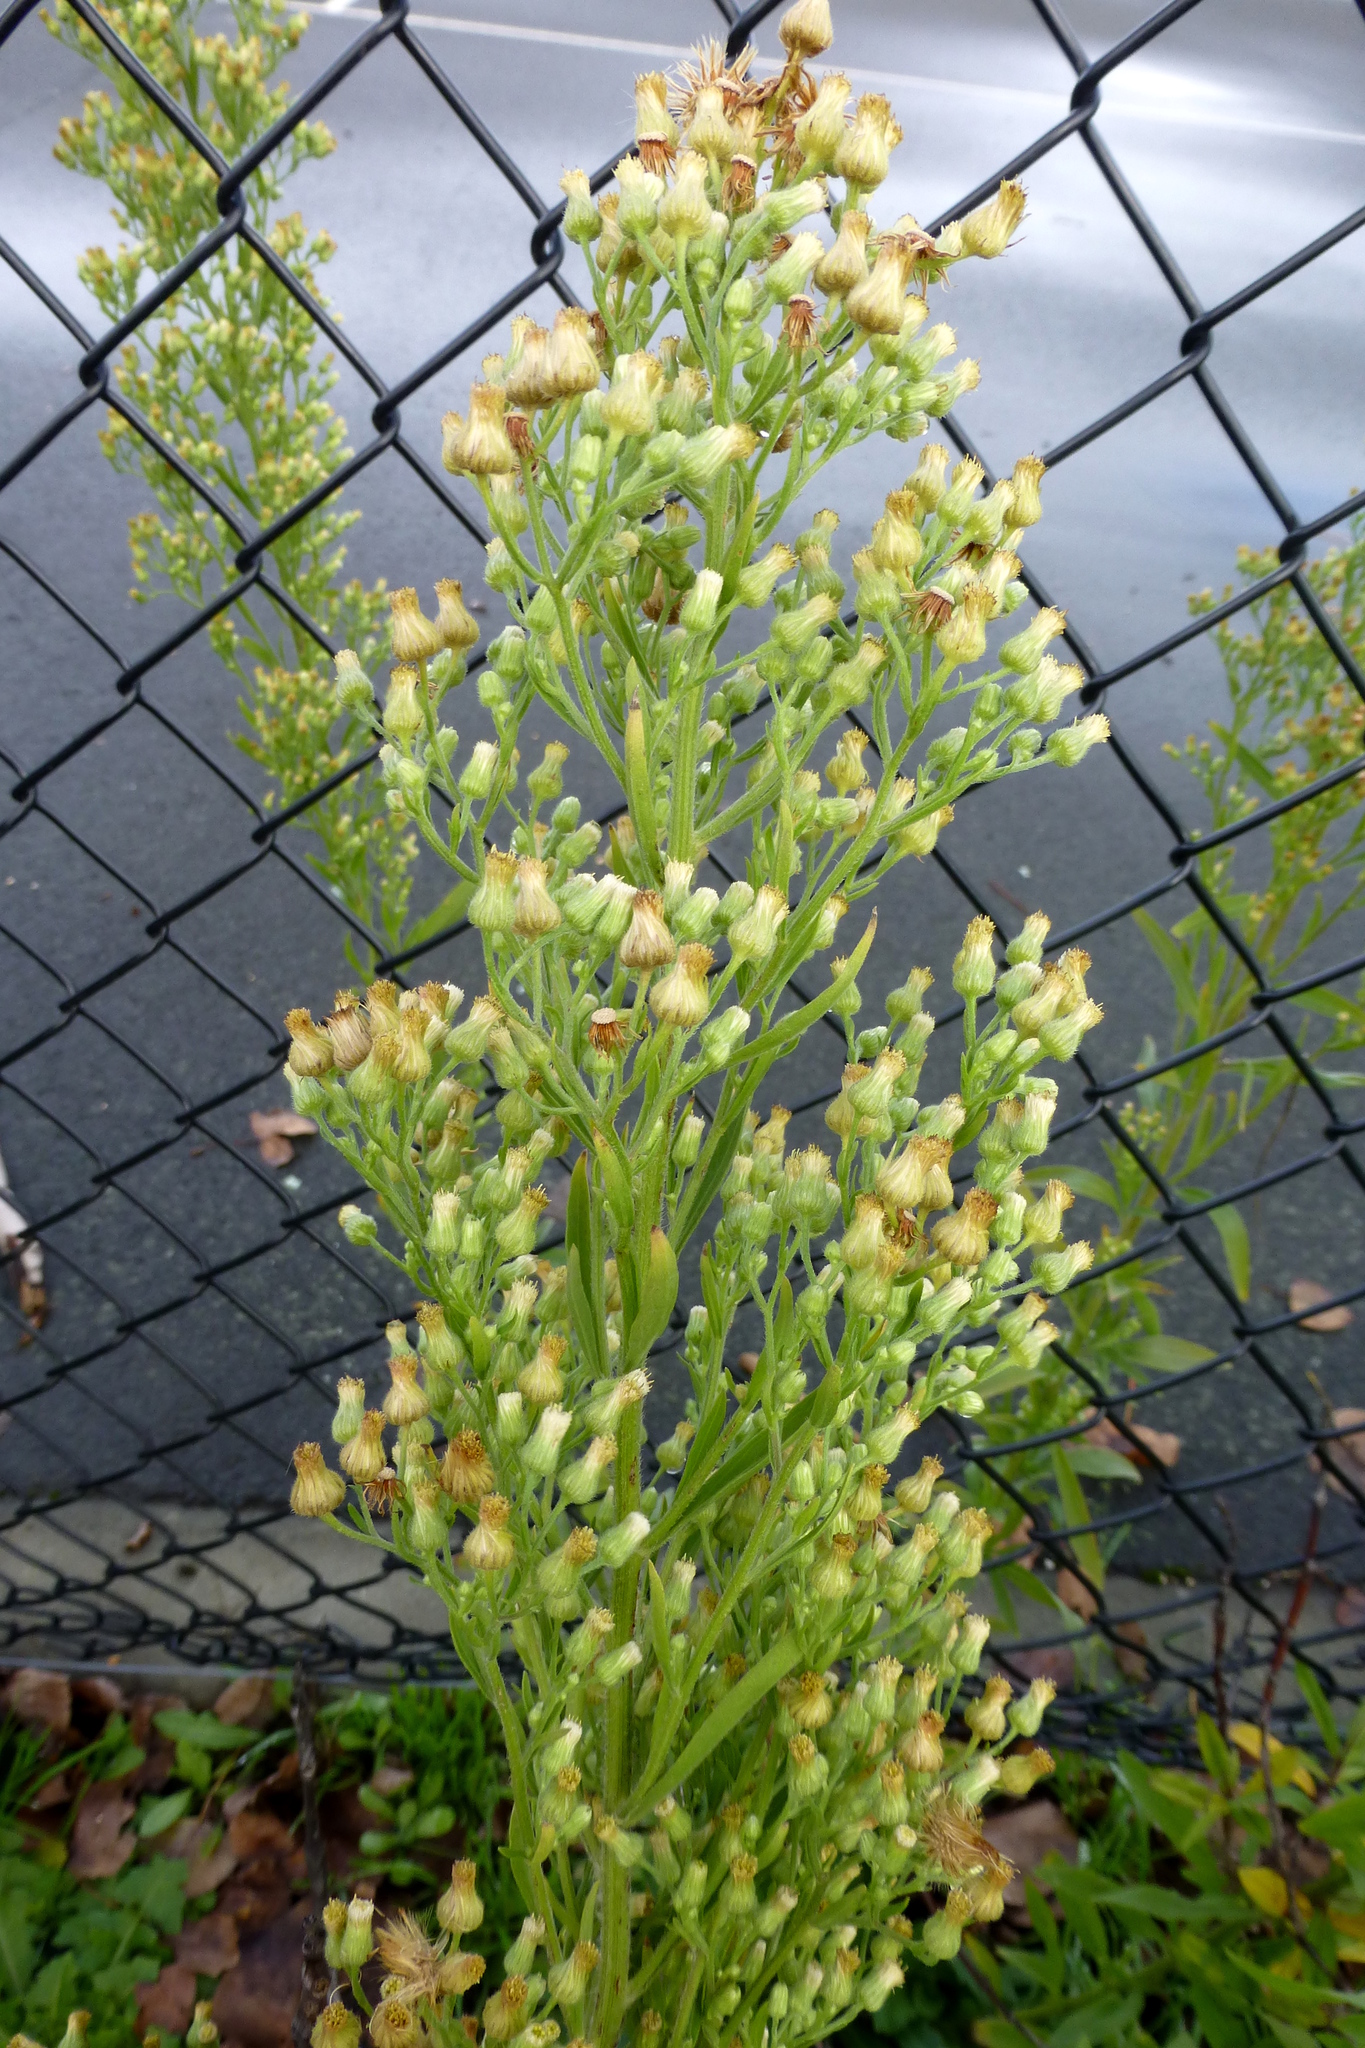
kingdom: Plantae
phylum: Tracheophyta
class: Magnoliopsida
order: Asterales
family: Asteraceae
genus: Erigeron
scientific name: Erigeron sumatrensis
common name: Daisy
